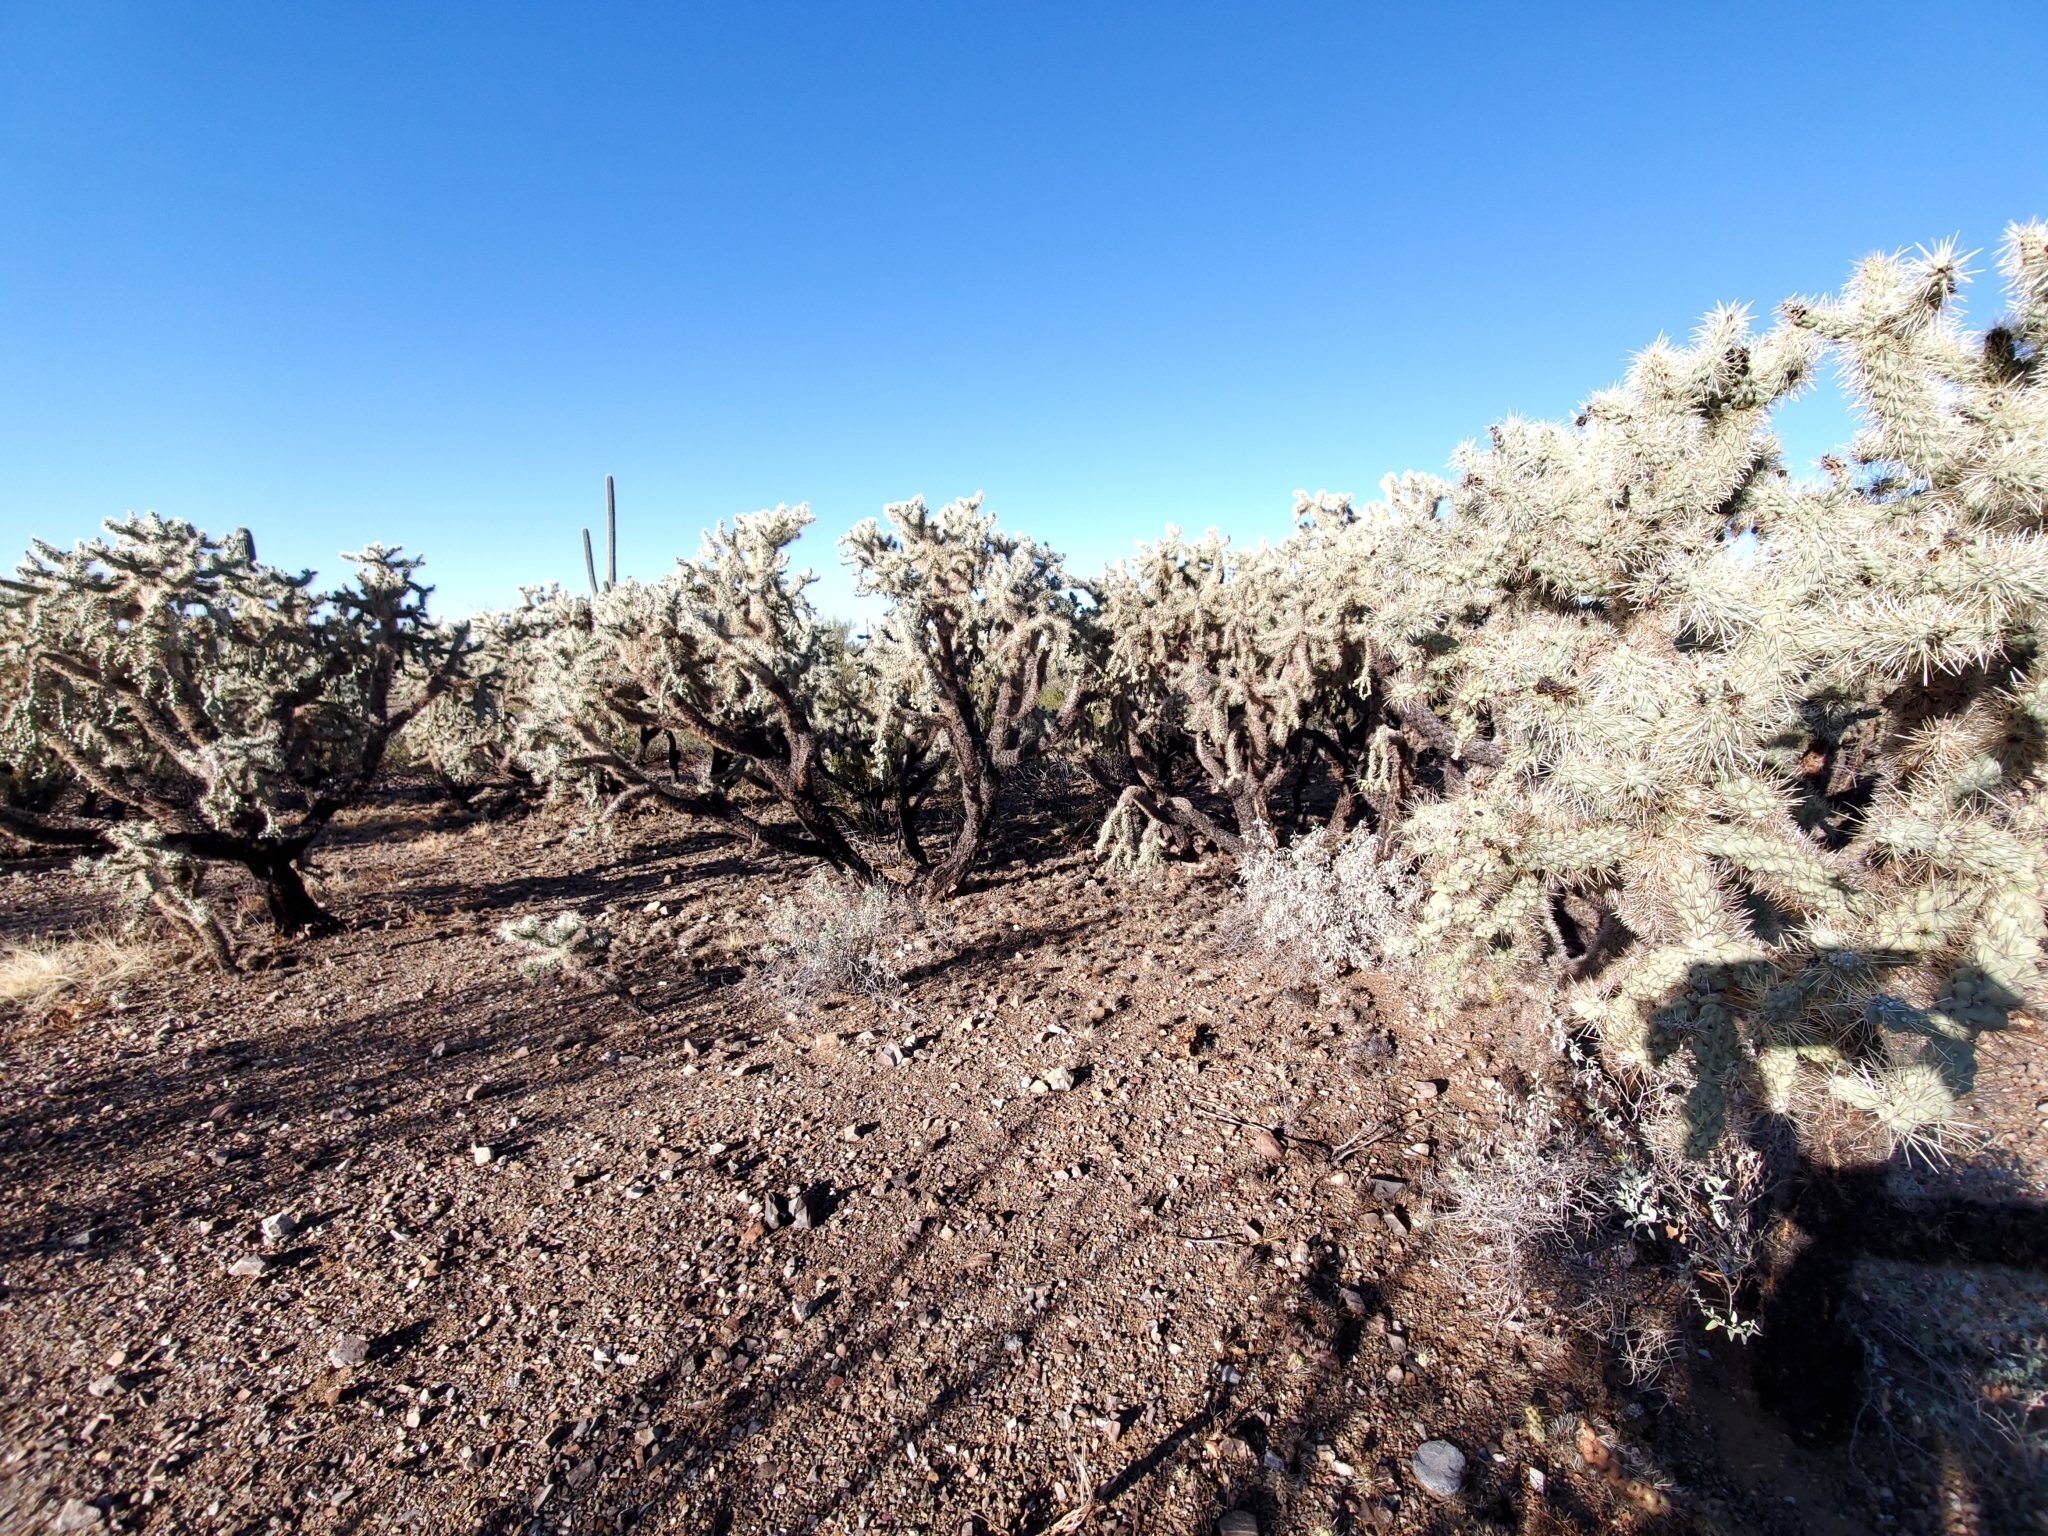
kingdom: Plantae
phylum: Tracheophyta
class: Magnoliopsida
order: Caryophyllales
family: Cactaceae
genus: Cylindropuntia
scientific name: Cylindropuntia fulgida
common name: Jumping cholla
